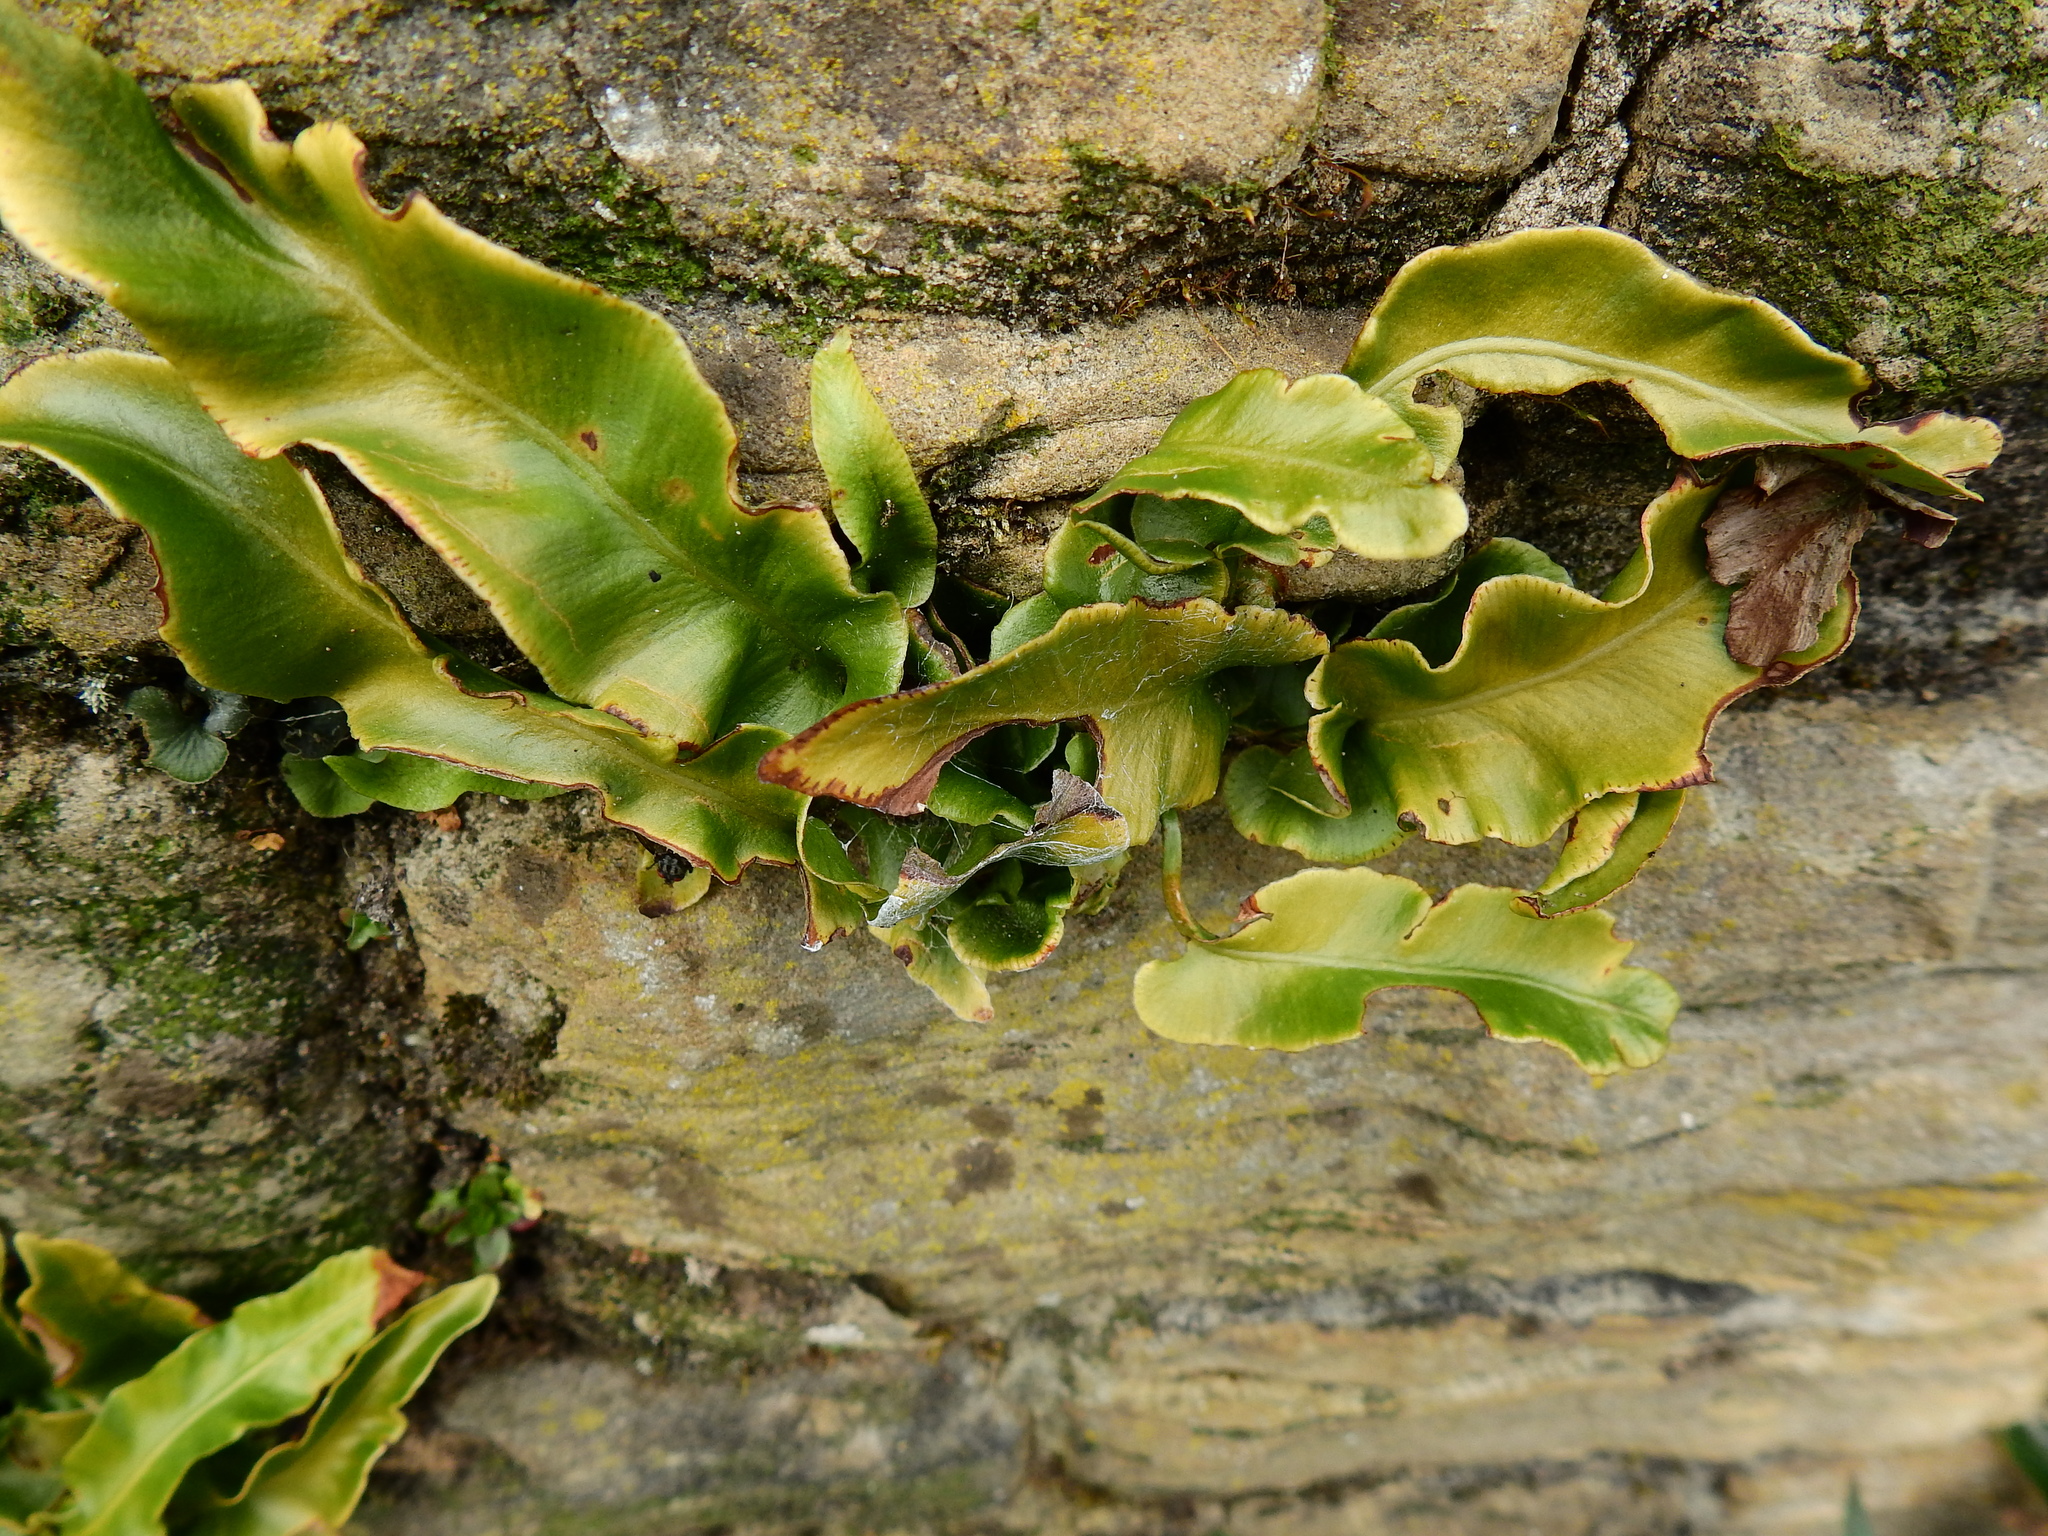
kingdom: Plantae
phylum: Tracheophyta
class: Polypodiopsida
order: Polypodiales
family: Aspleniaceae
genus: Asplenium
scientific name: Asplenium scolopendrium
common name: Hart's-tongue fern
